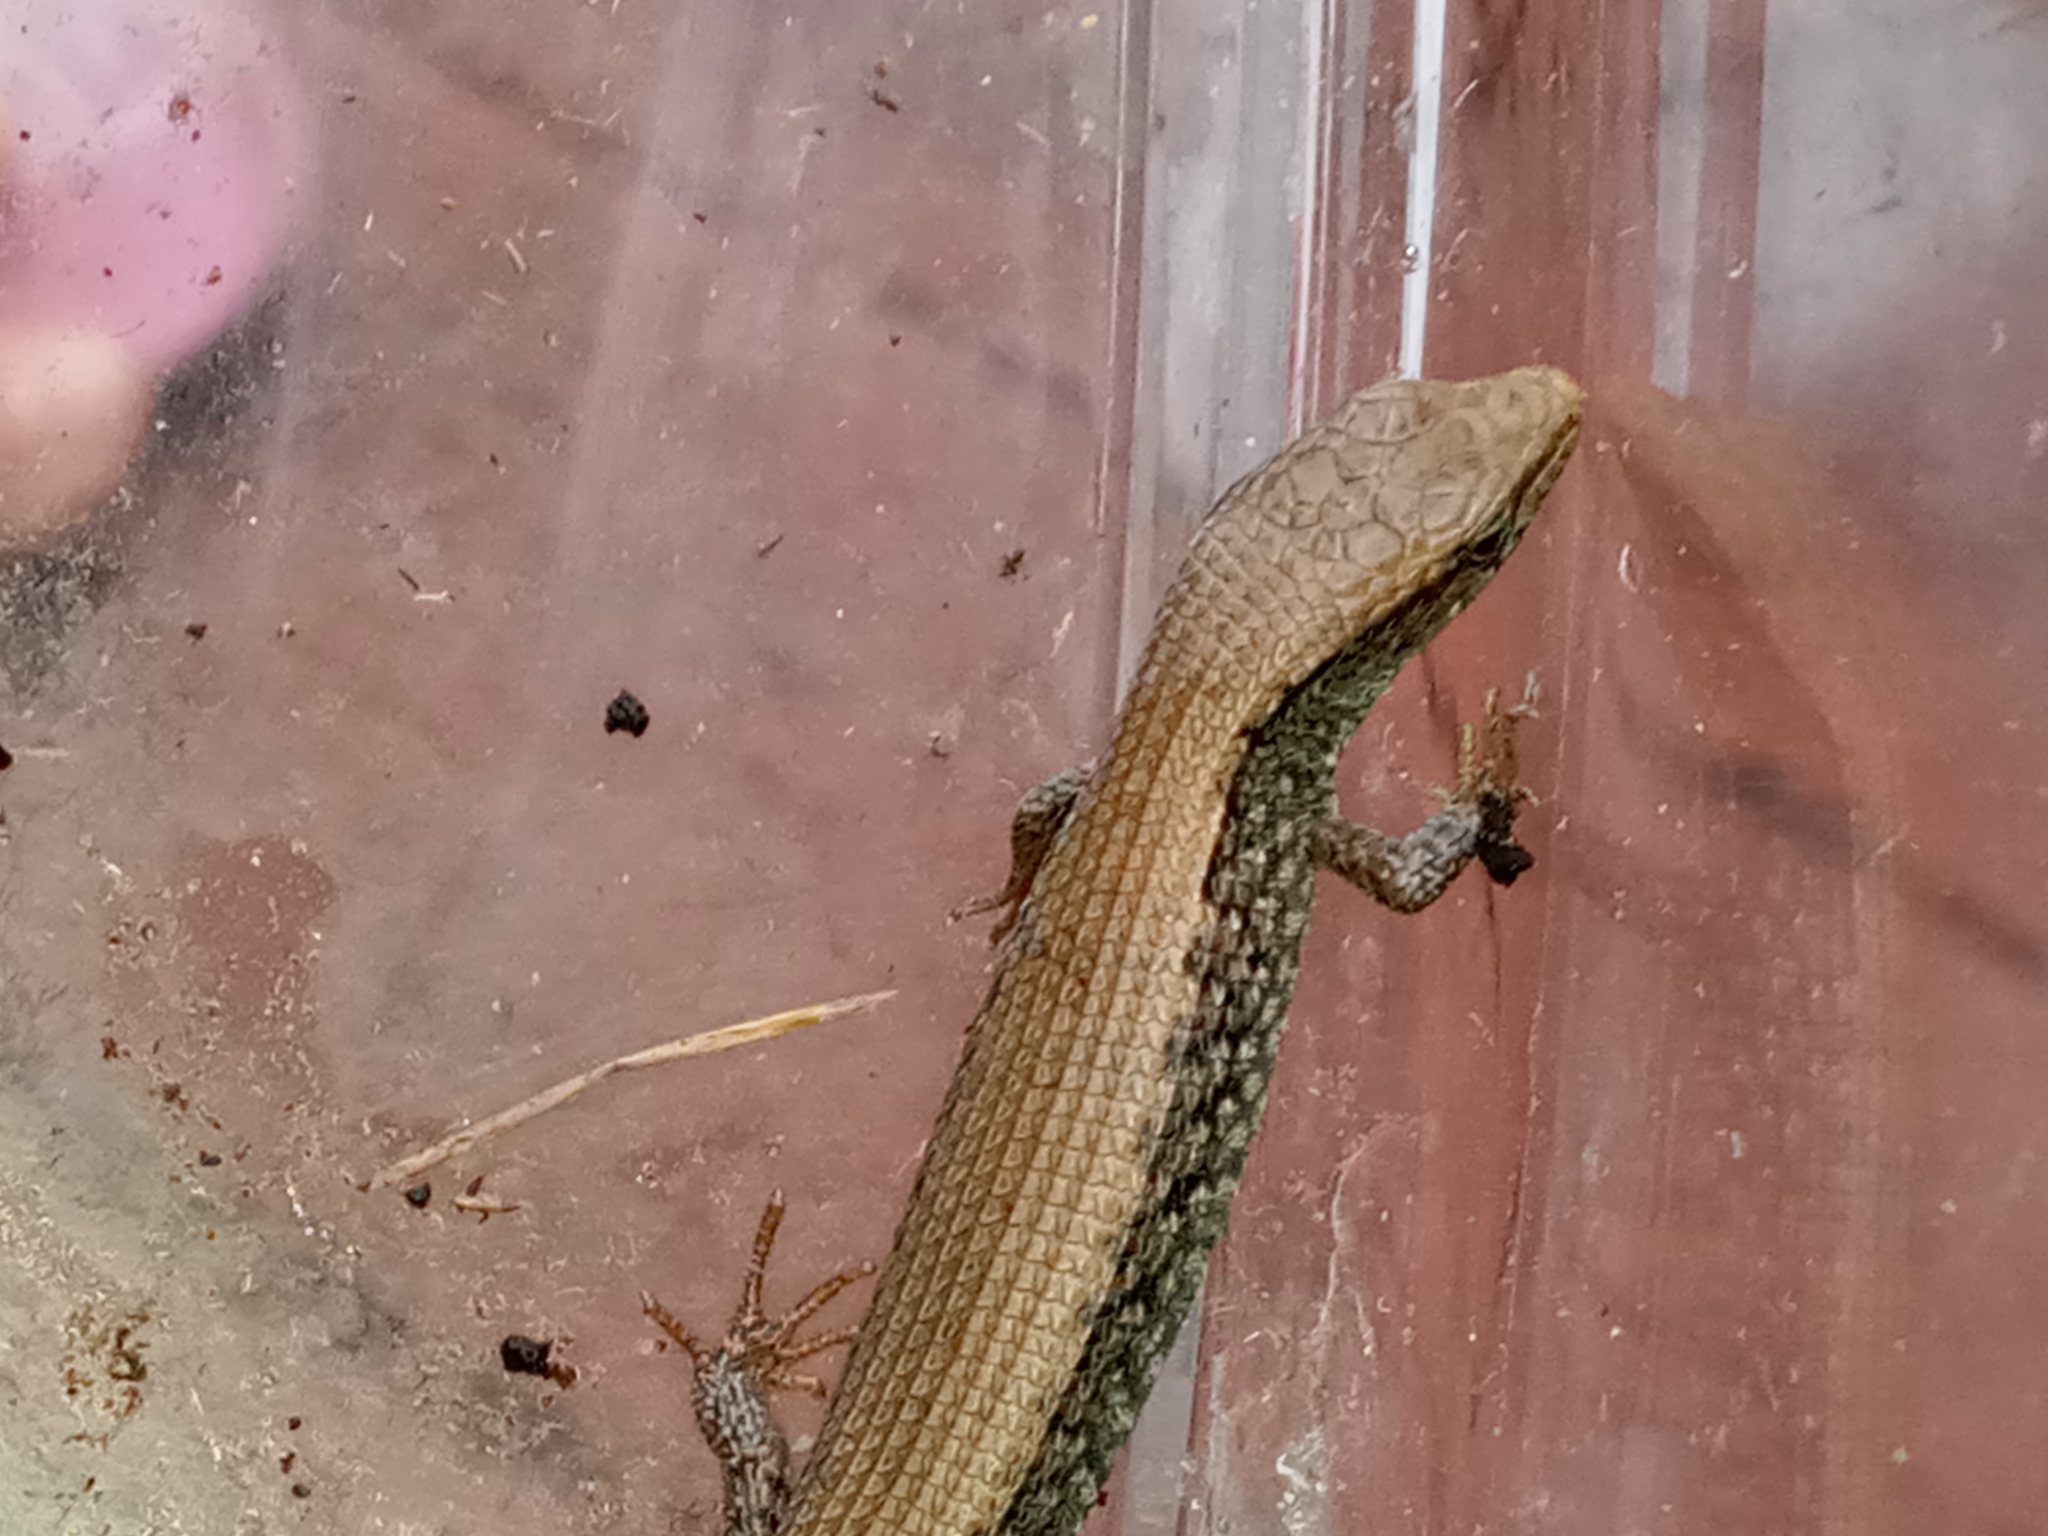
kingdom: Animalia
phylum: Chordata
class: Squamata
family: Anguidae
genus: Elgaria
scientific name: Elgaria coerulea
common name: Northern alligator lizard
